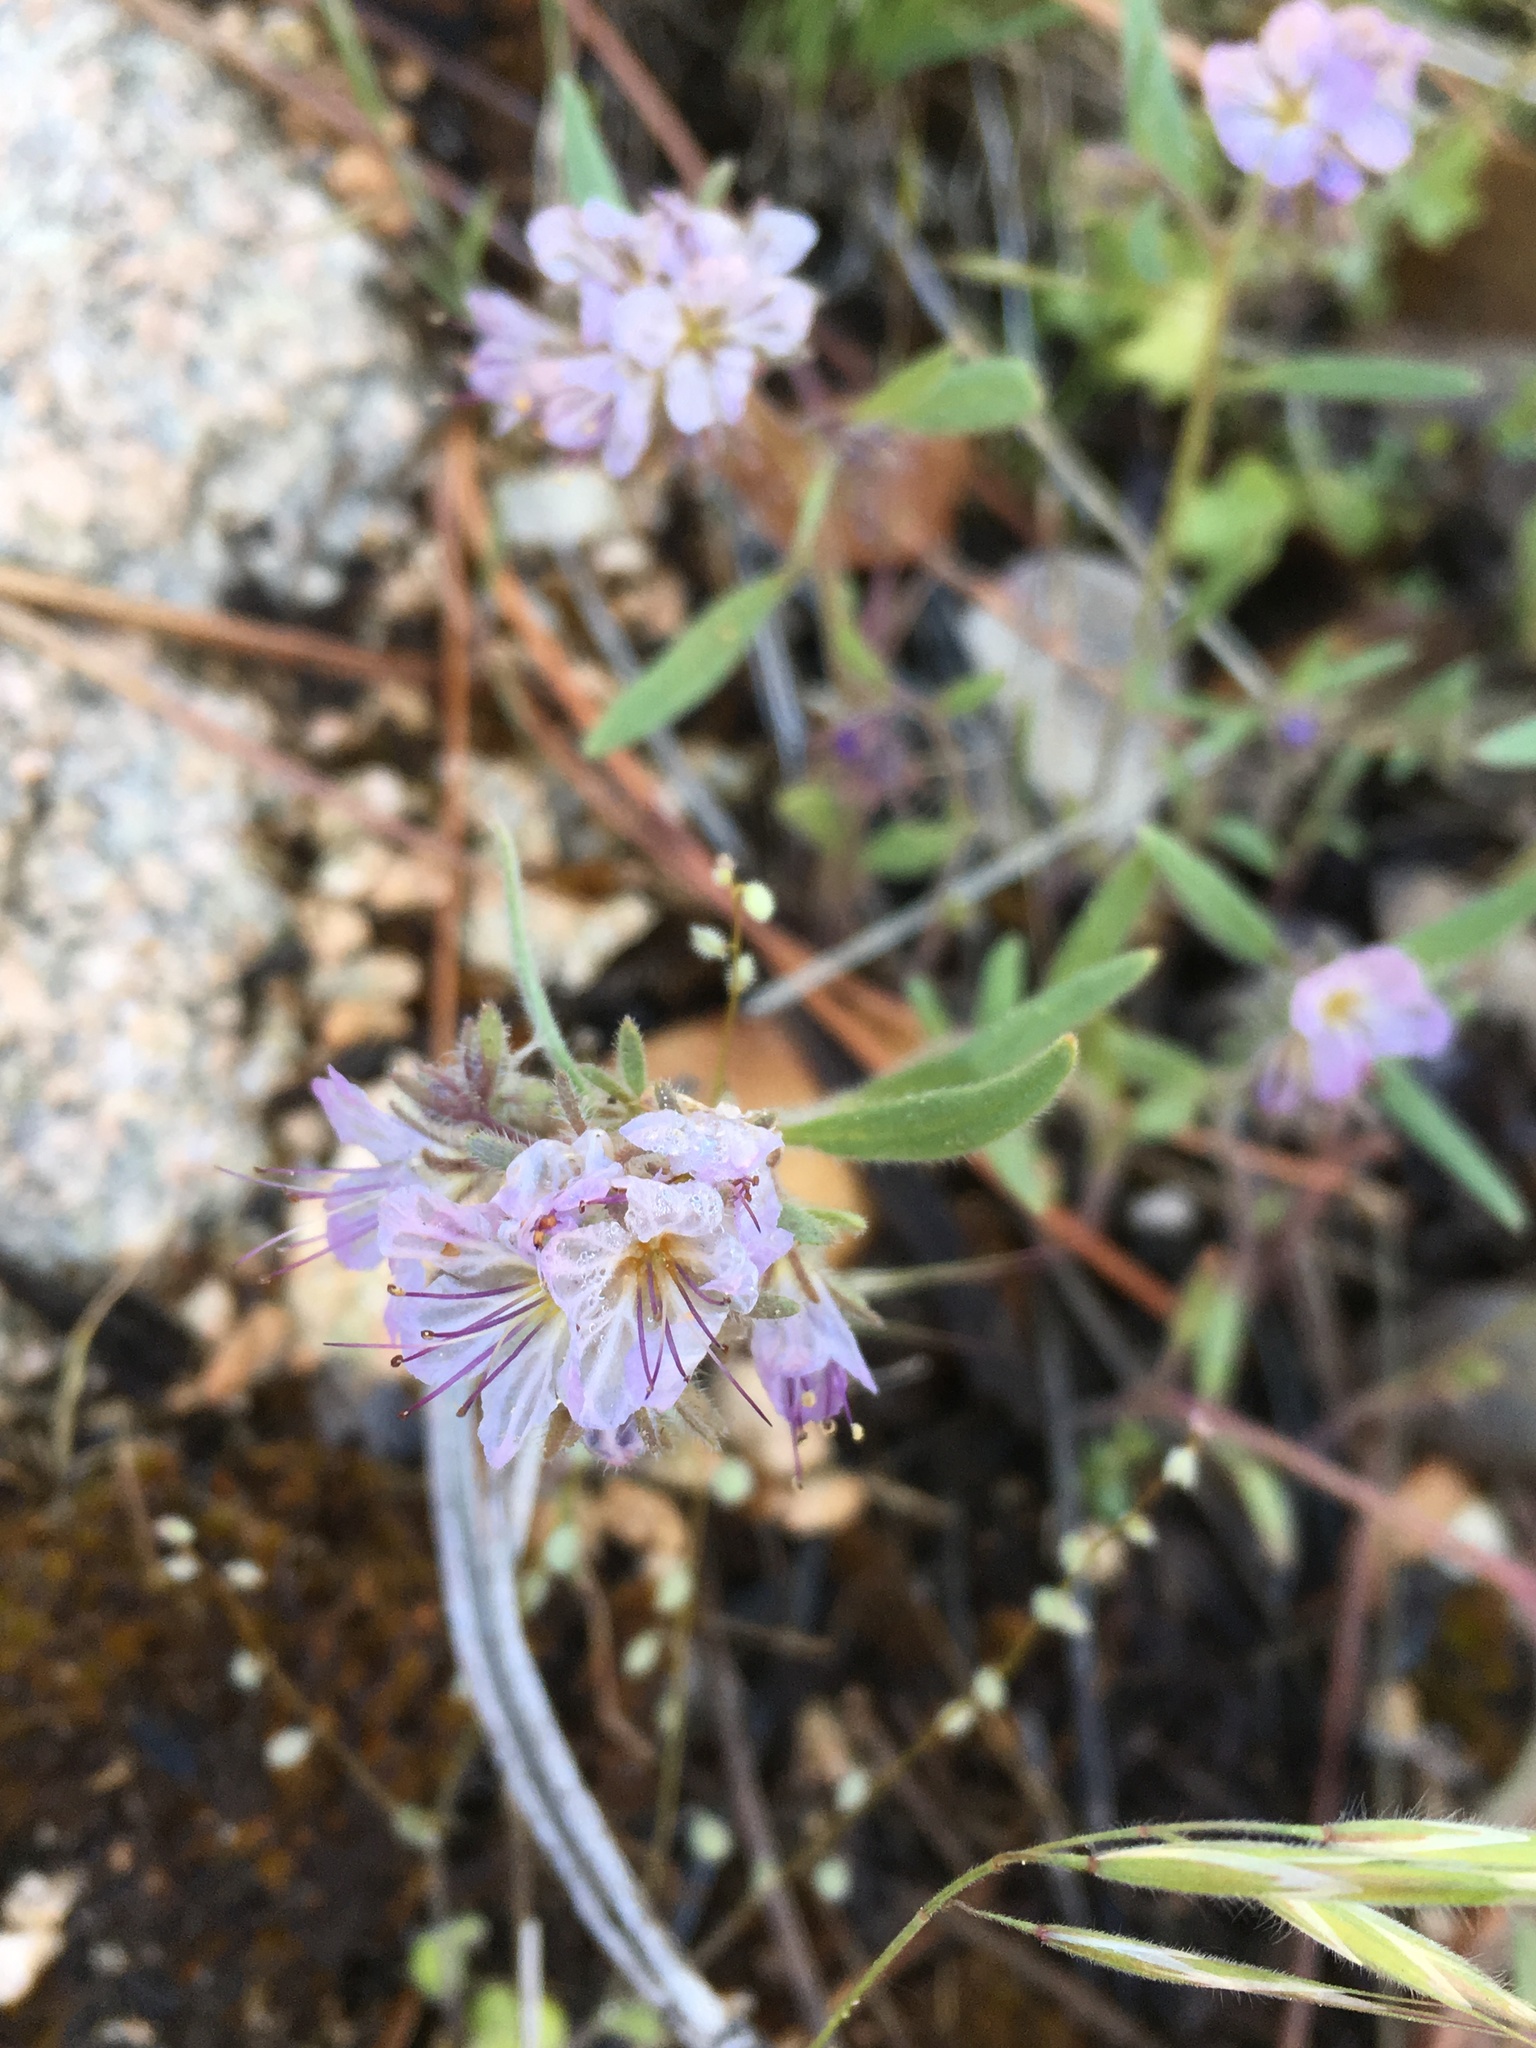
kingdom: Plantae
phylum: Tracheophyta
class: Magnoliopsida
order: Boraginales
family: Hydrophyllaceae
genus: Phacelia
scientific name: Phacelia mohavensis
